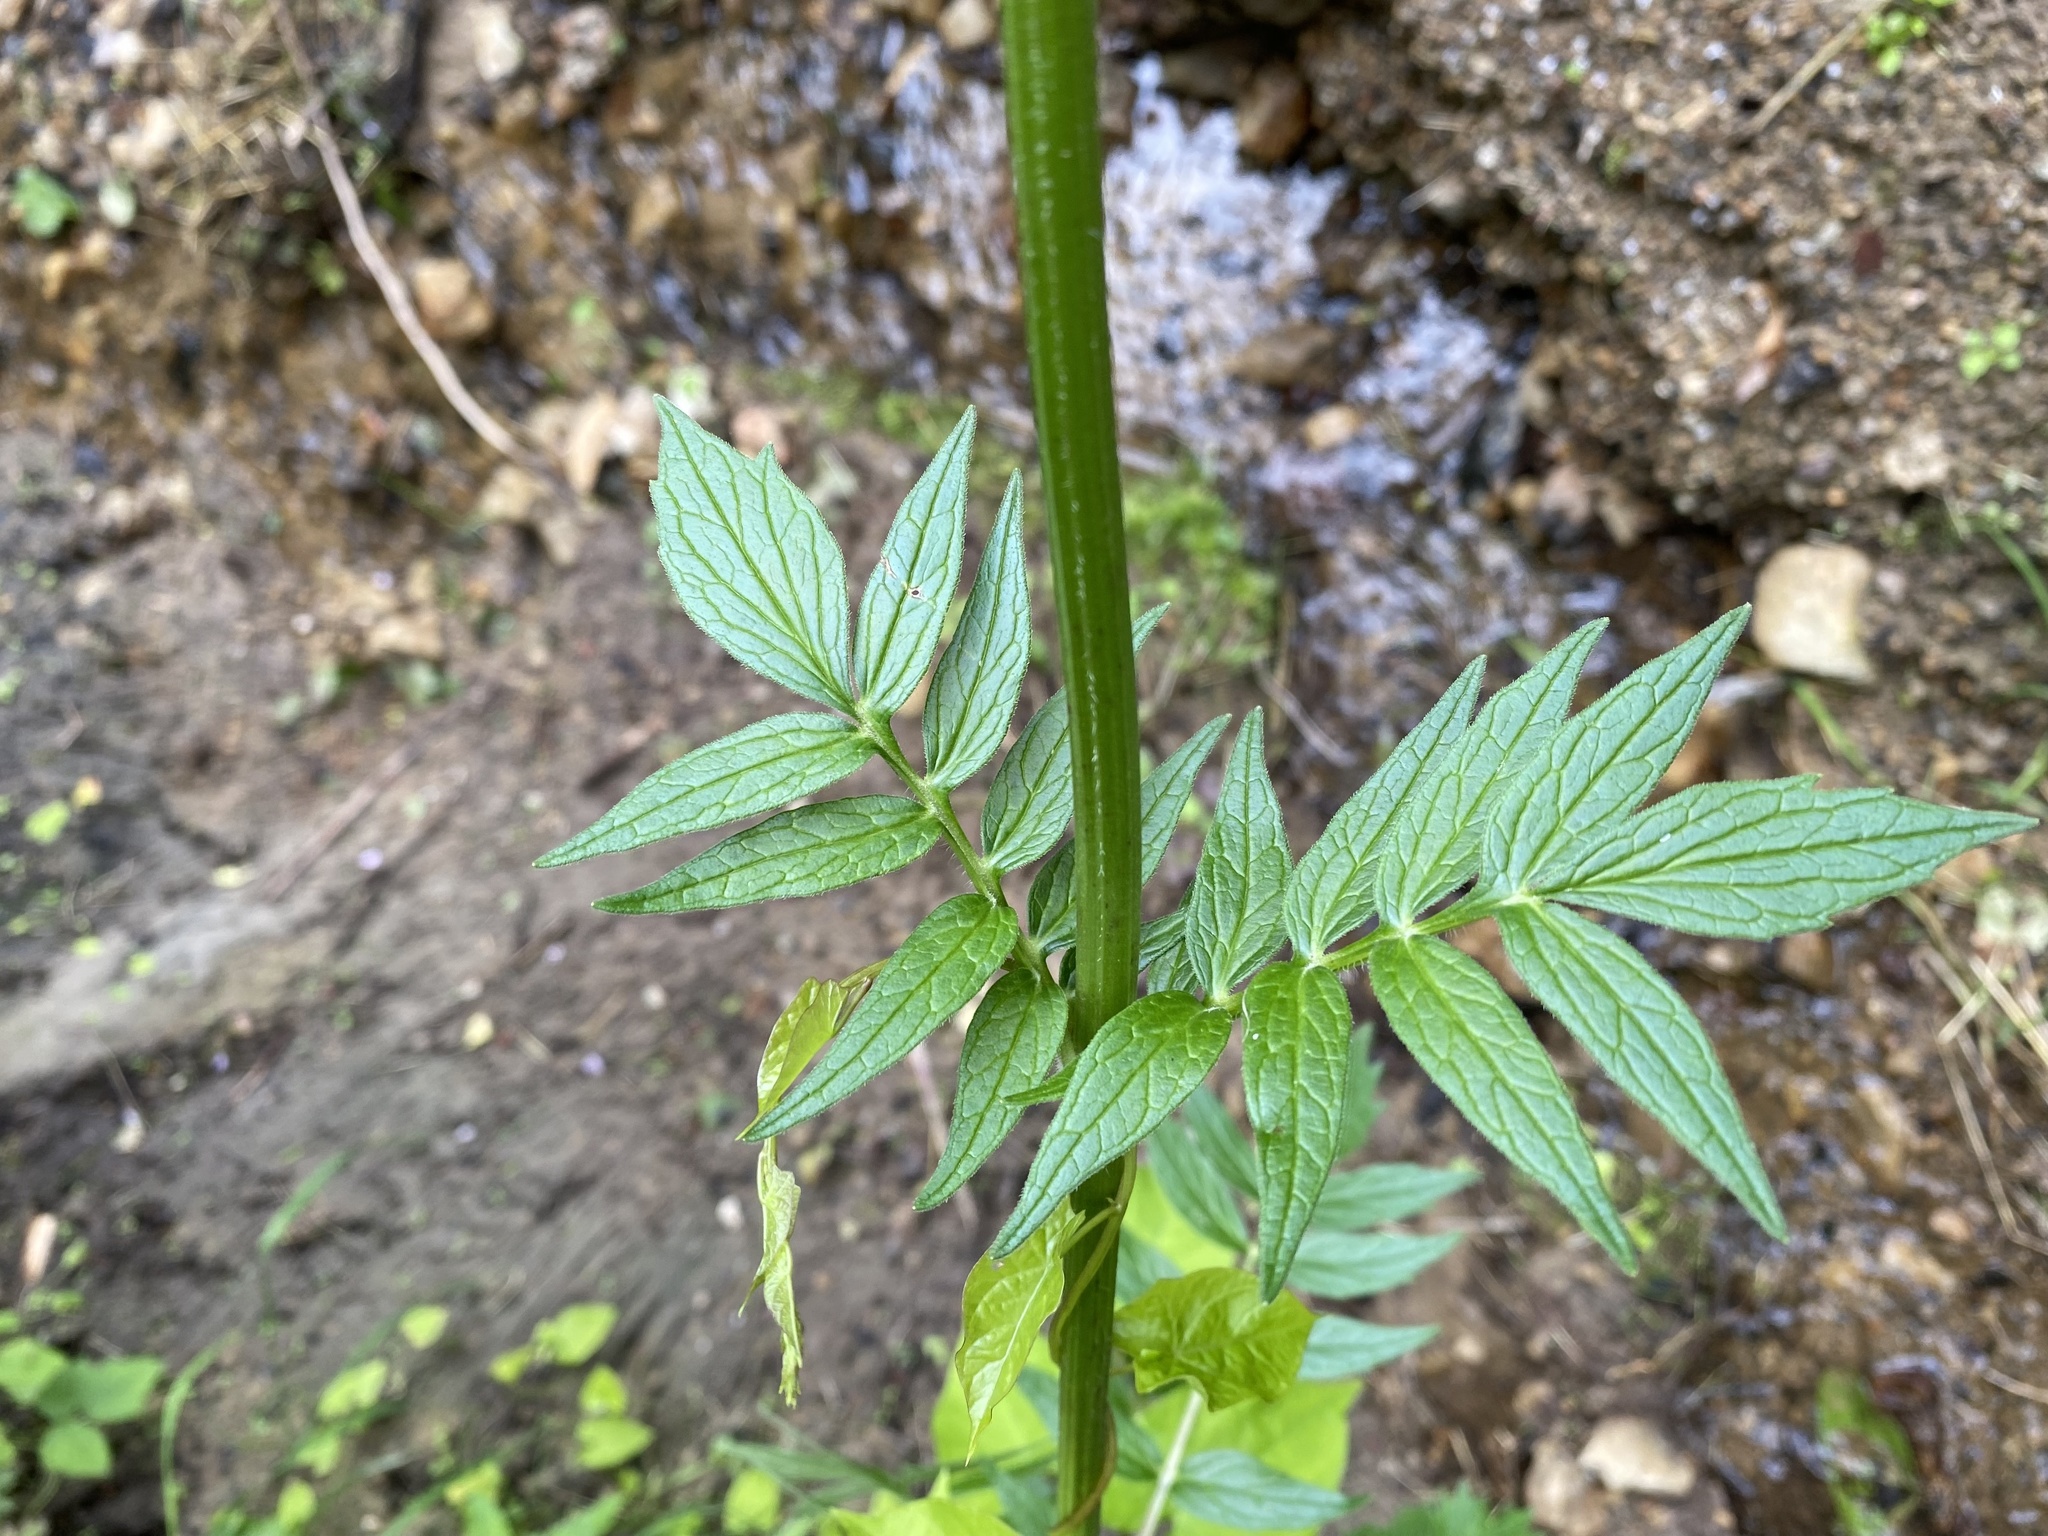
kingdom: Plantae
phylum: Tracheophyta
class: Magnoliopsida
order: Dipsacales
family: Caprifoliaceae
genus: Valeriana
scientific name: Valeriana officinalis
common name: Common valerian
